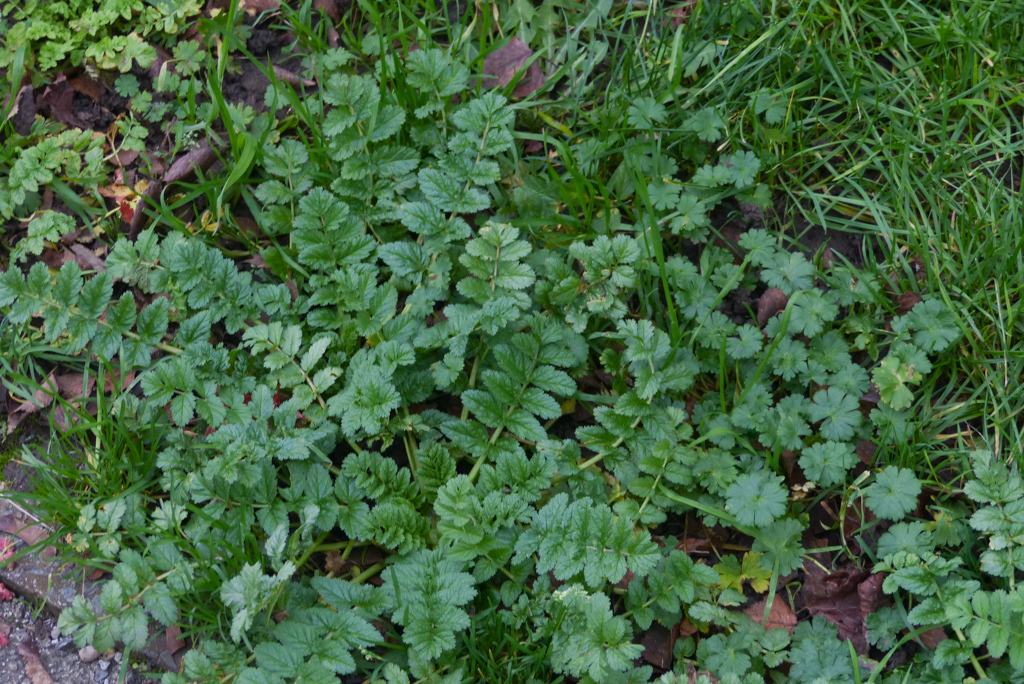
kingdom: Plantae
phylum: Tracheophyta
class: Magnoliopsida
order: Geraniales
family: Geraniaceae
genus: Erodium
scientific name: Erodium moschatum
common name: Musk stork's-bill
